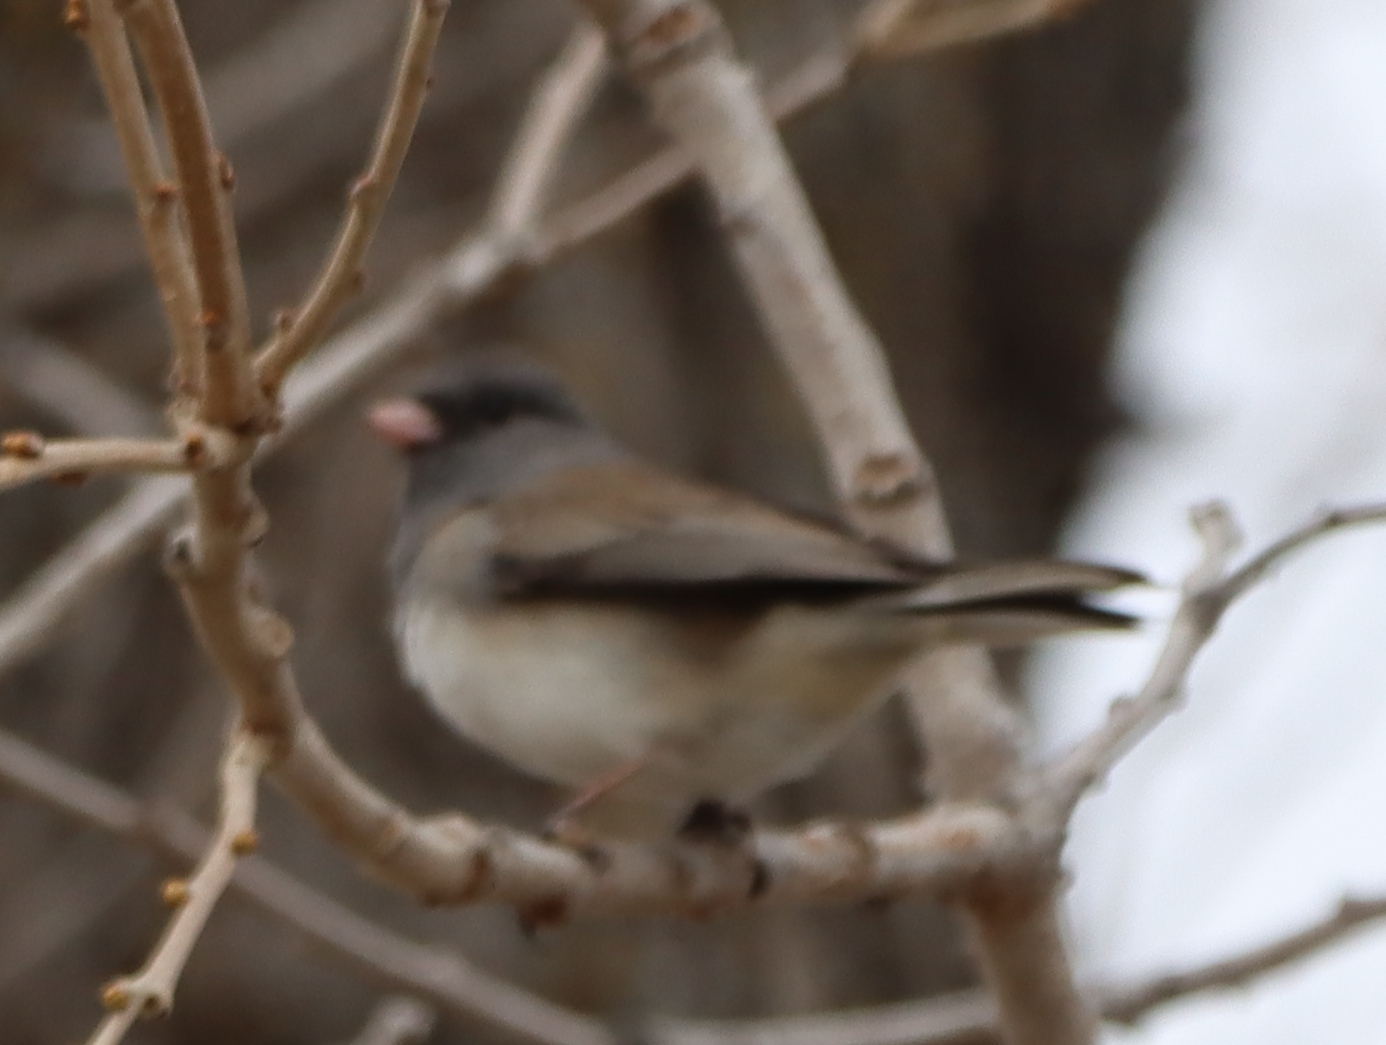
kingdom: Animalia
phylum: Chordata
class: Aves
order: Passeriformes
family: Passerellidae
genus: Junco
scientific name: Junco hyemalis
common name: Dark-eyed junco
